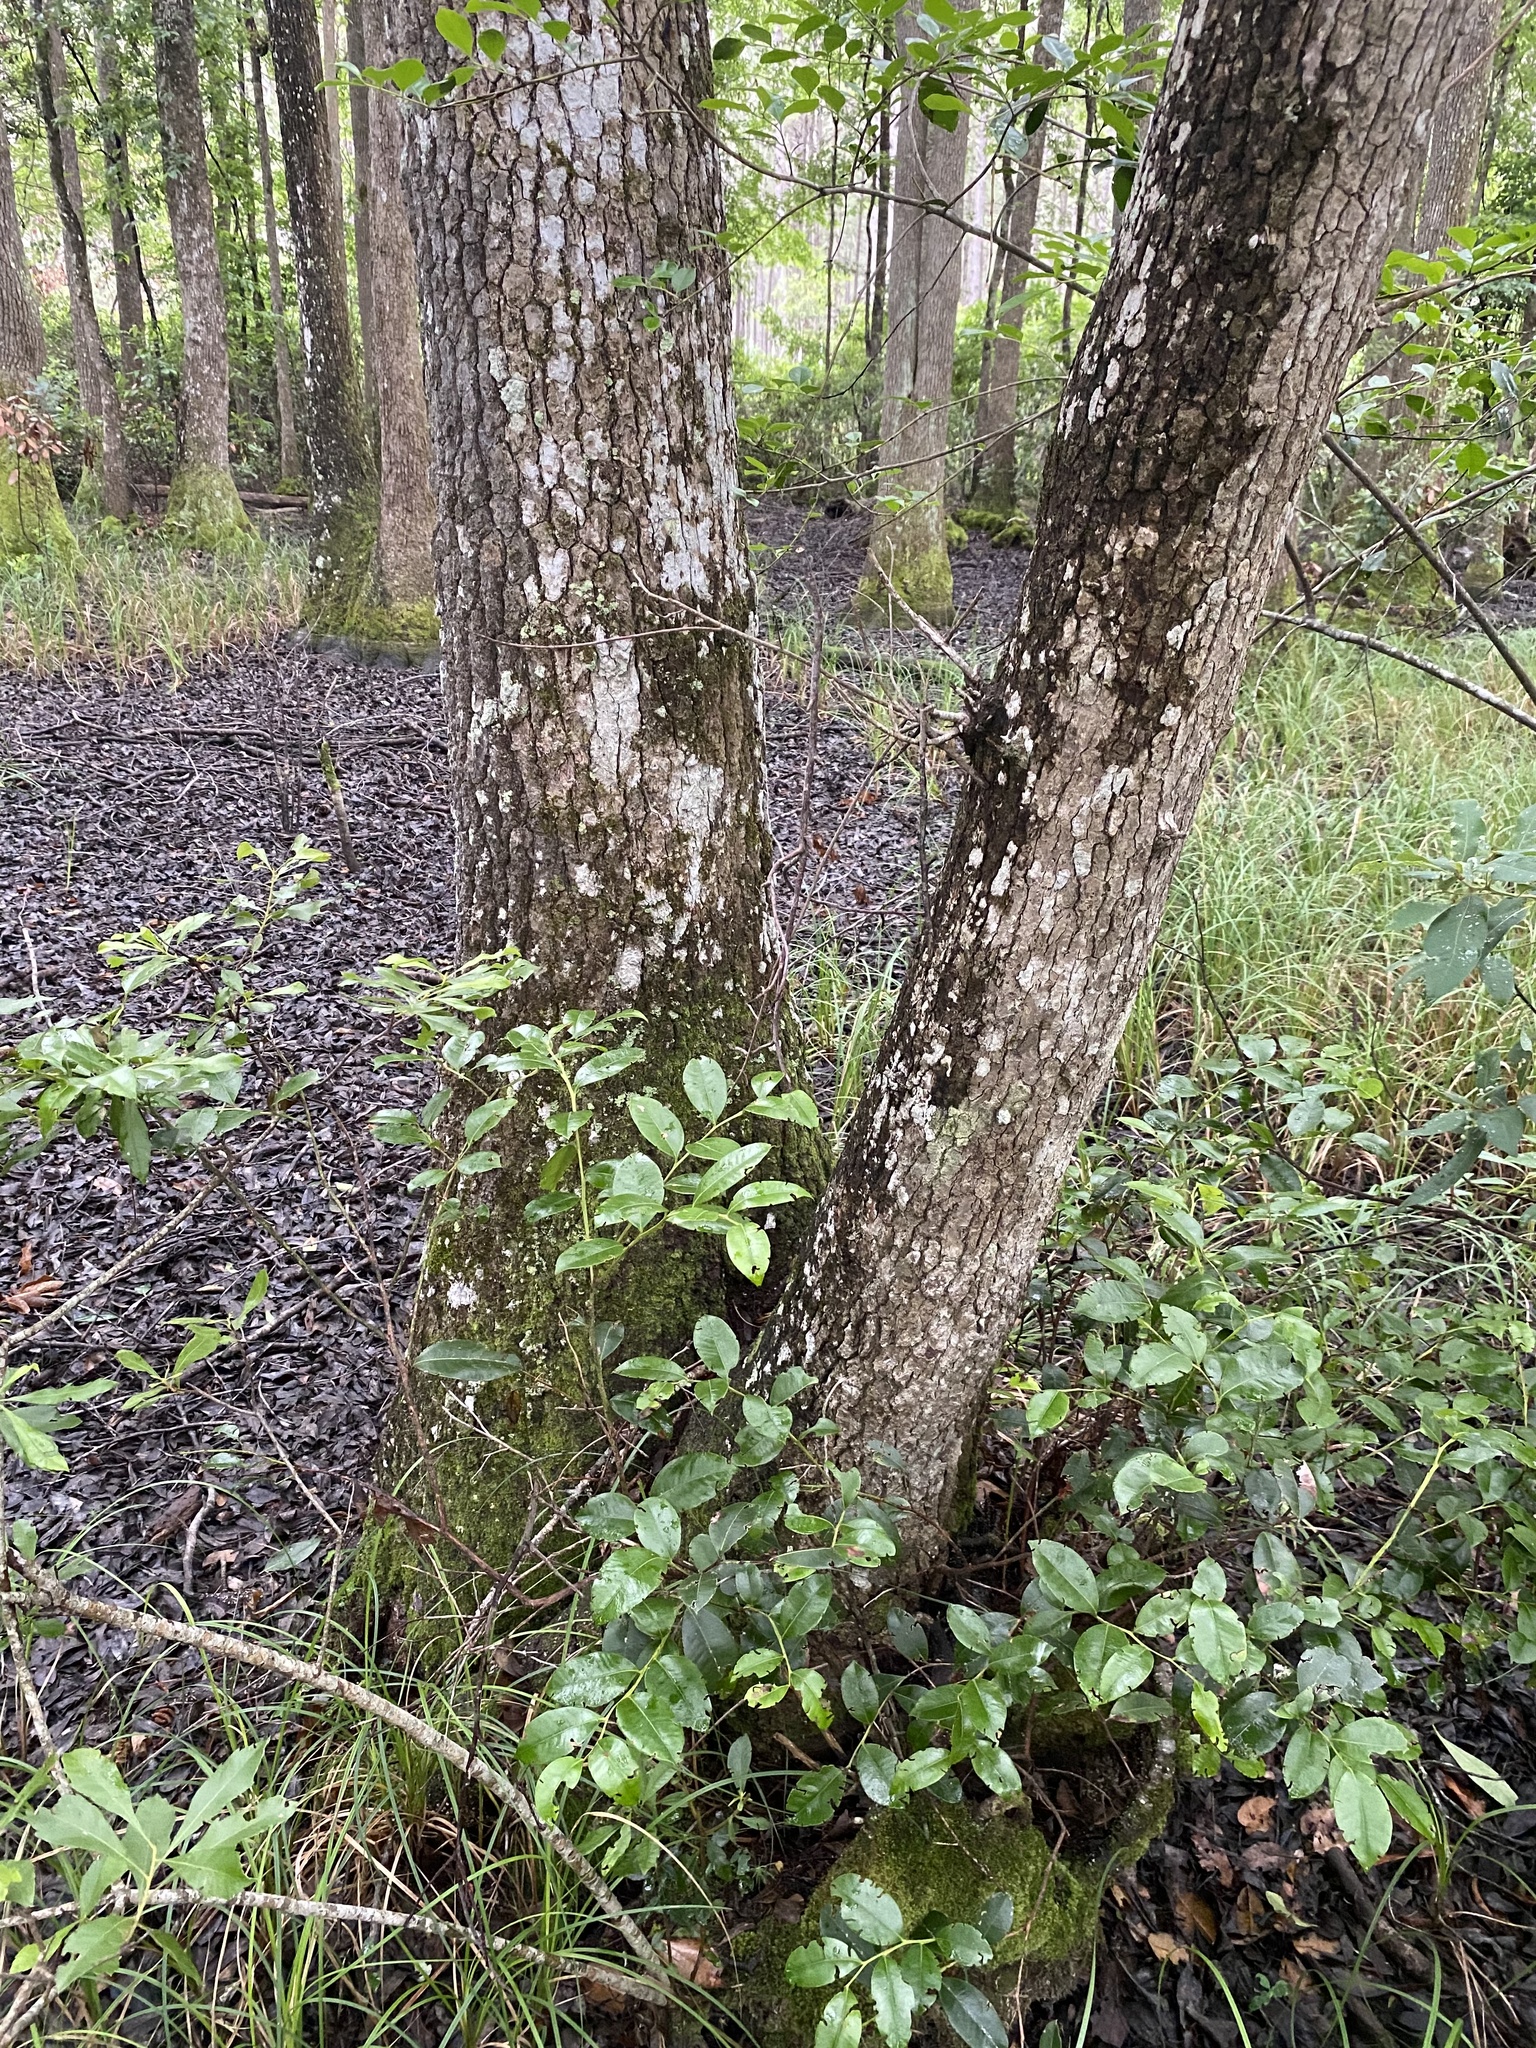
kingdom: Plantae
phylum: Tracheophyta
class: Magnoliopsida
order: Cornales
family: Nyssaceae
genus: Nyssa
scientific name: Nyssa biflora
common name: Swamp blackgum
